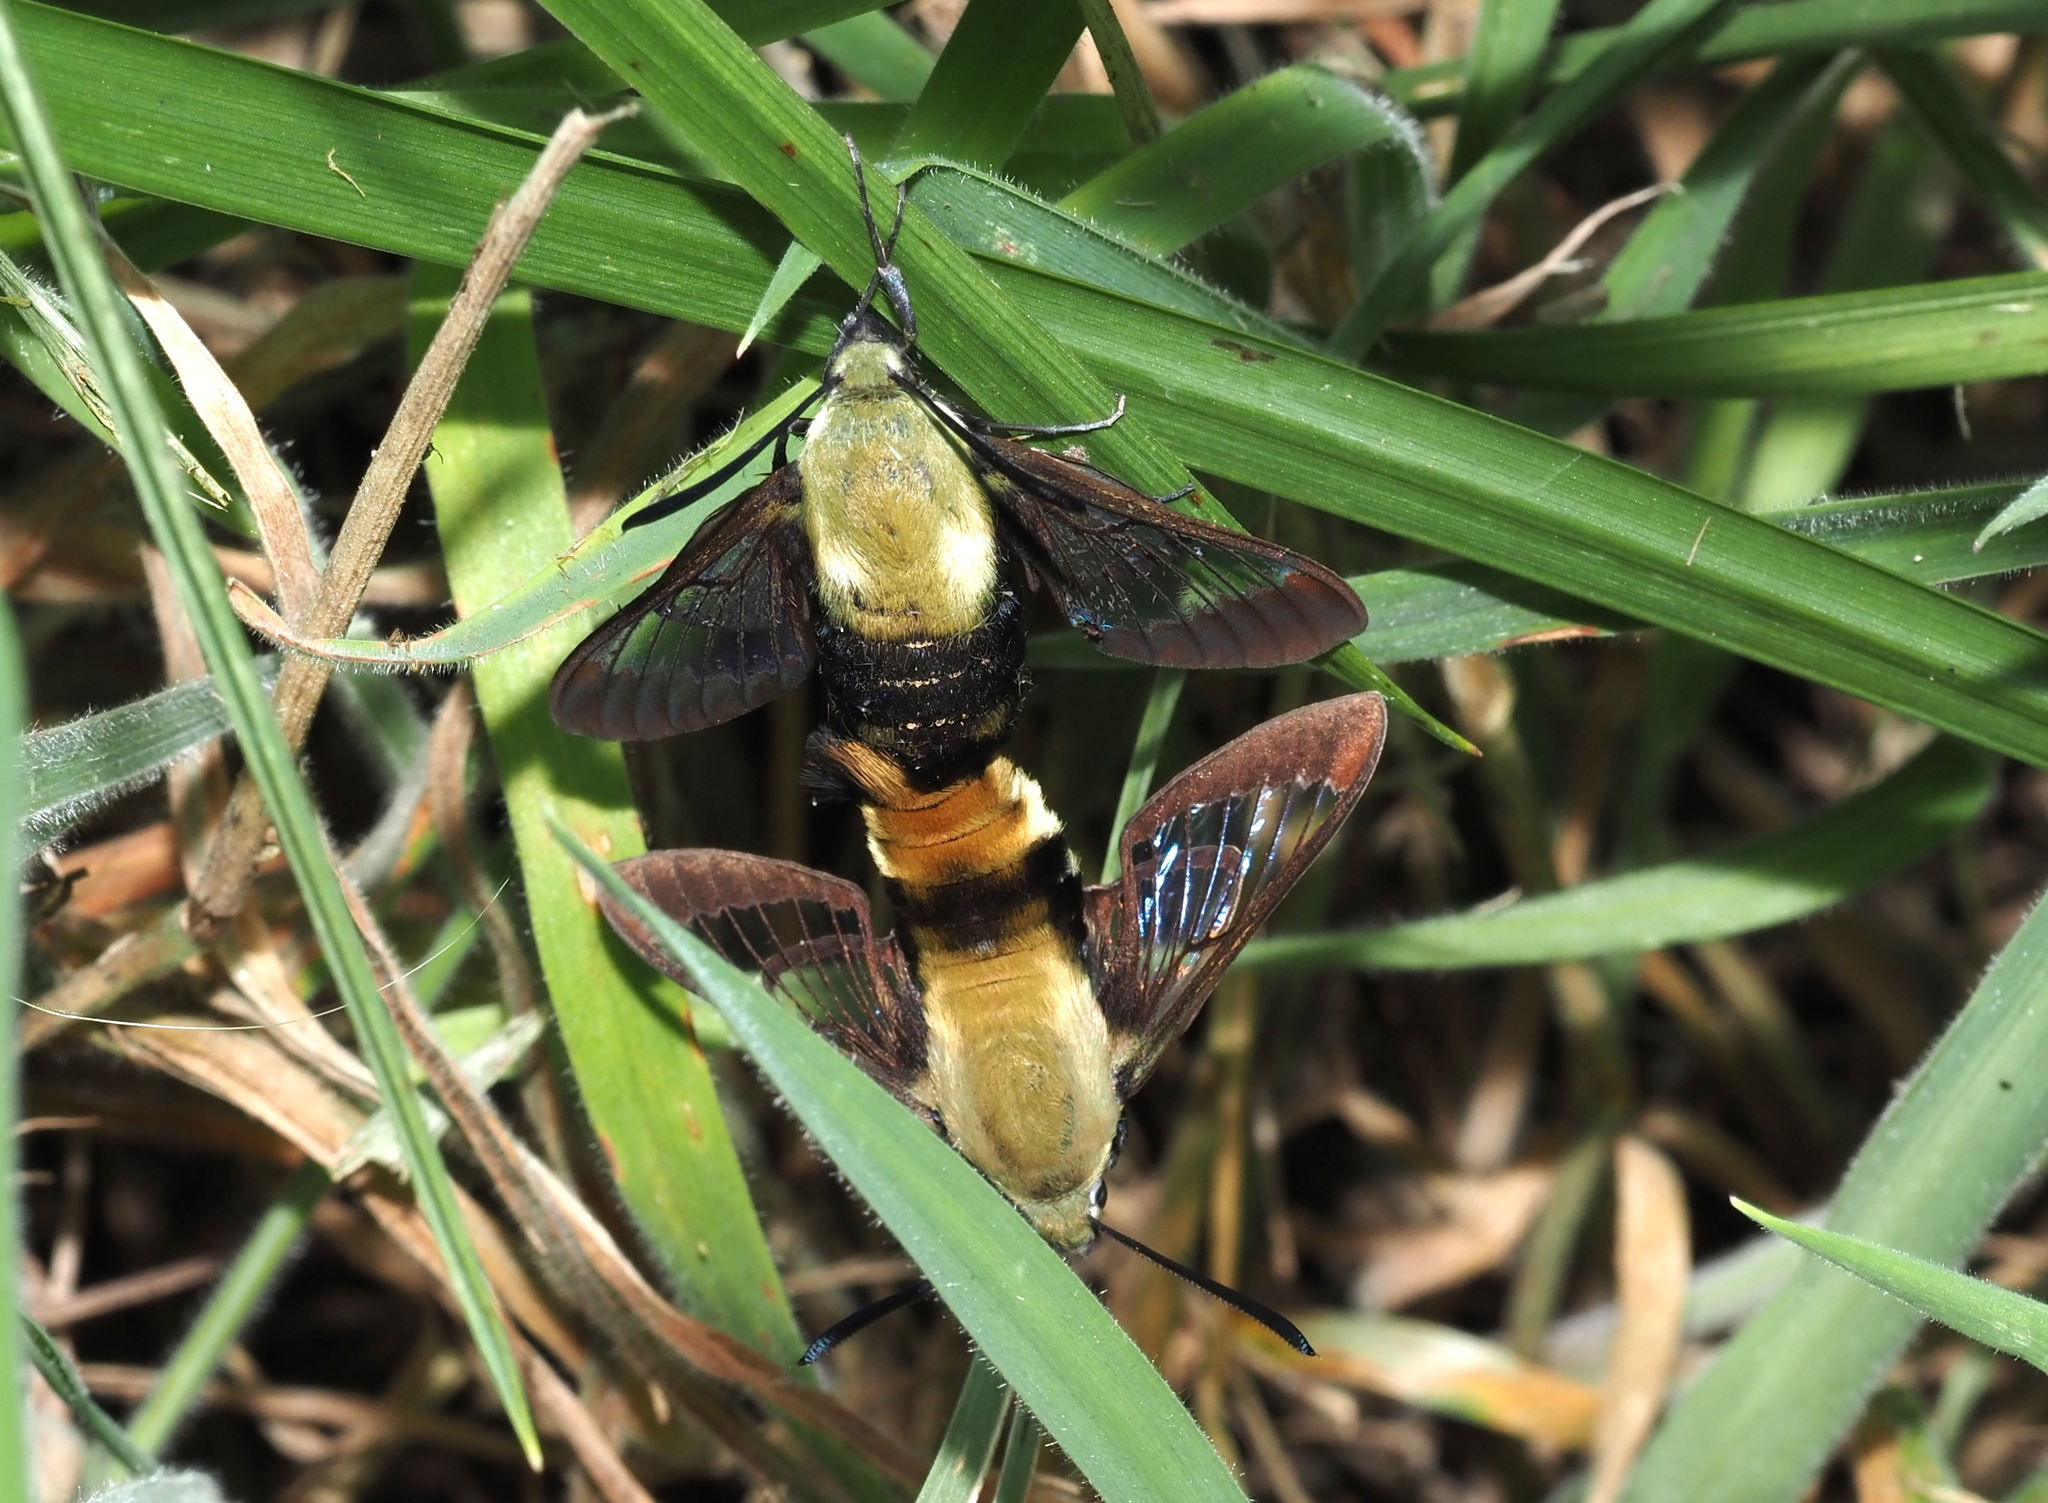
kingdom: Animalia
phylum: Arthropoda
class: Insecta
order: Lepidoptera
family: Sphingidae
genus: Hemaris
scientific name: Hemaris diffinis
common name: Bumblebee moth
